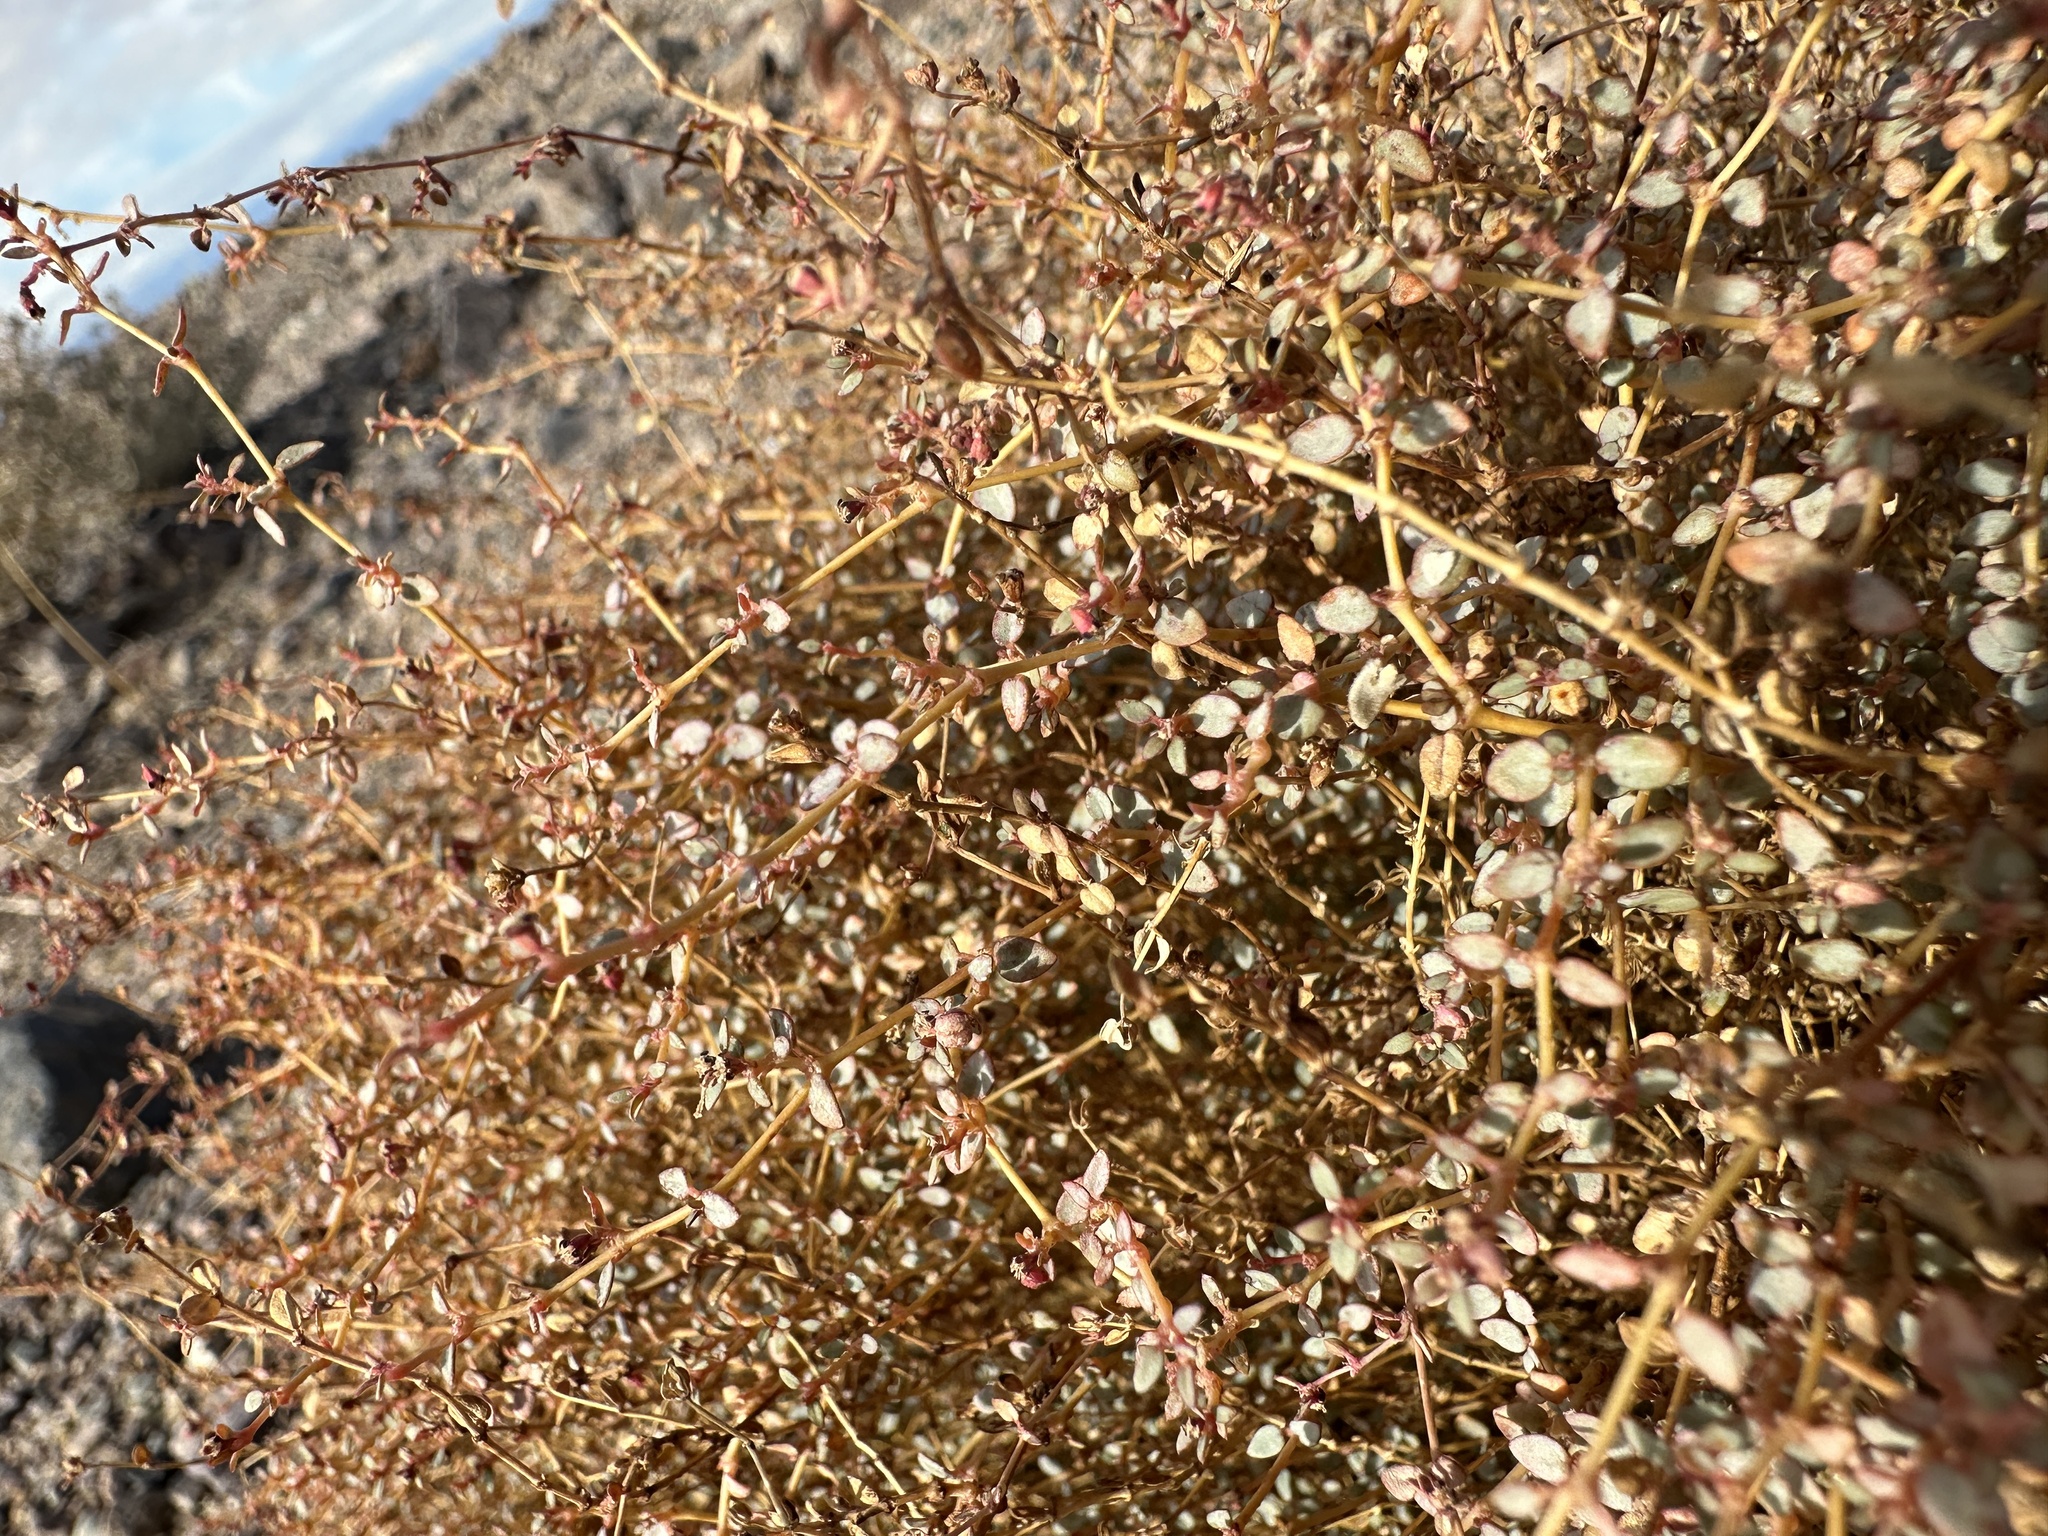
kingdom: Plantae
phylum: Tracheophyta
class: Magnoliopsida
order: Malpighiales
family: Euphorbiaceae
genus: Euphorbia
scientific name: Euphorbia parishii
